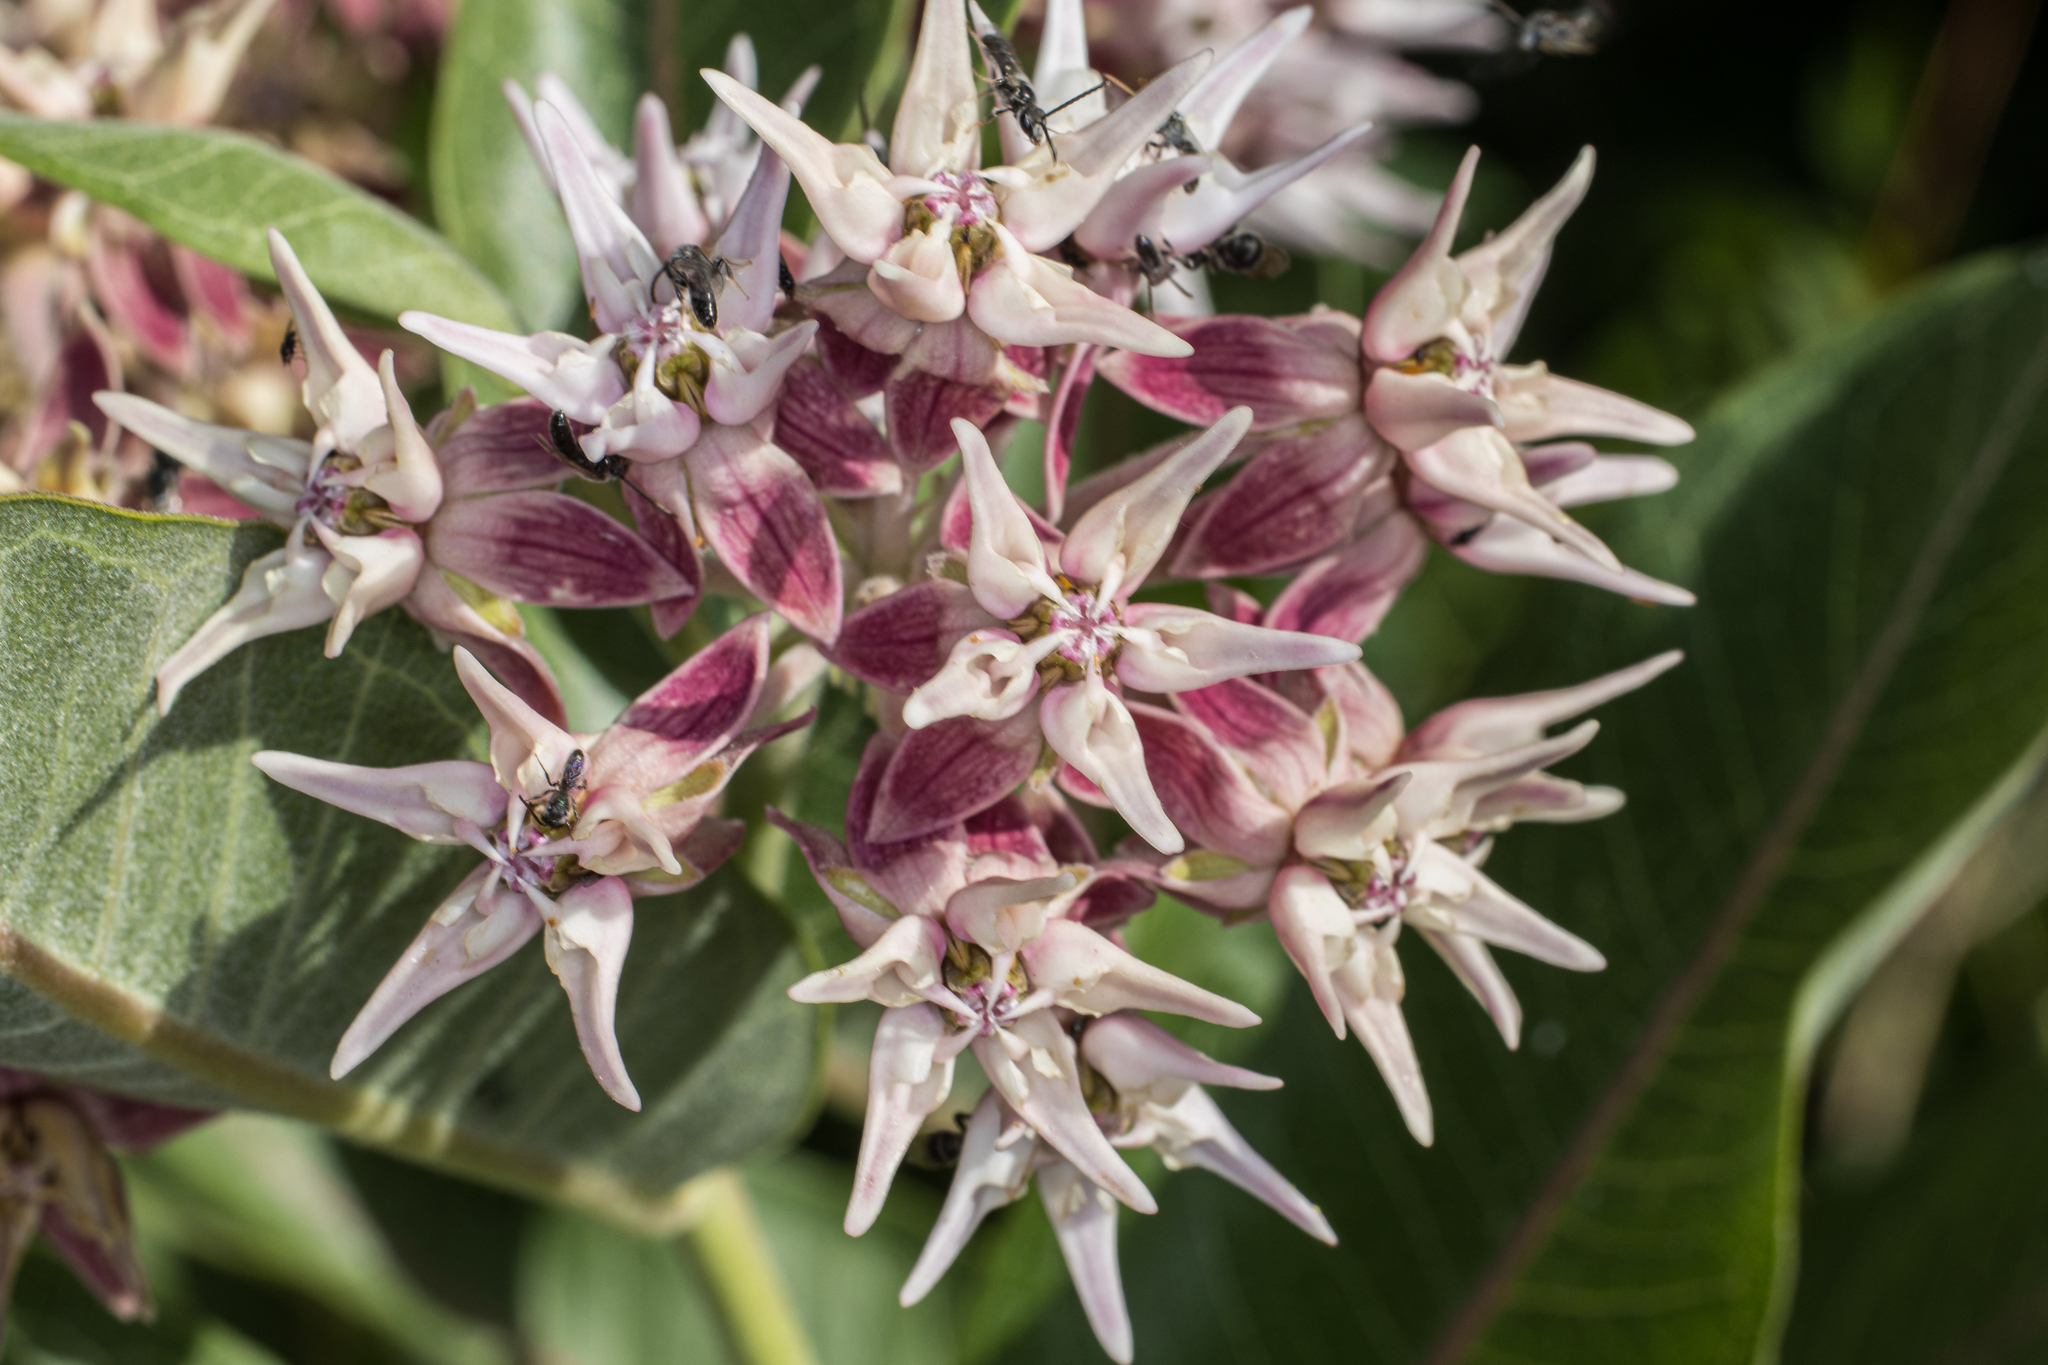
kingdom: Plantae
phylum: Tracheophyta
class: Magnoliopsida
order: Gentianales
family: Apocynaceae
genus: Asclepias
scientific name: Asclepias speciosa
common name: Showy milkweed
